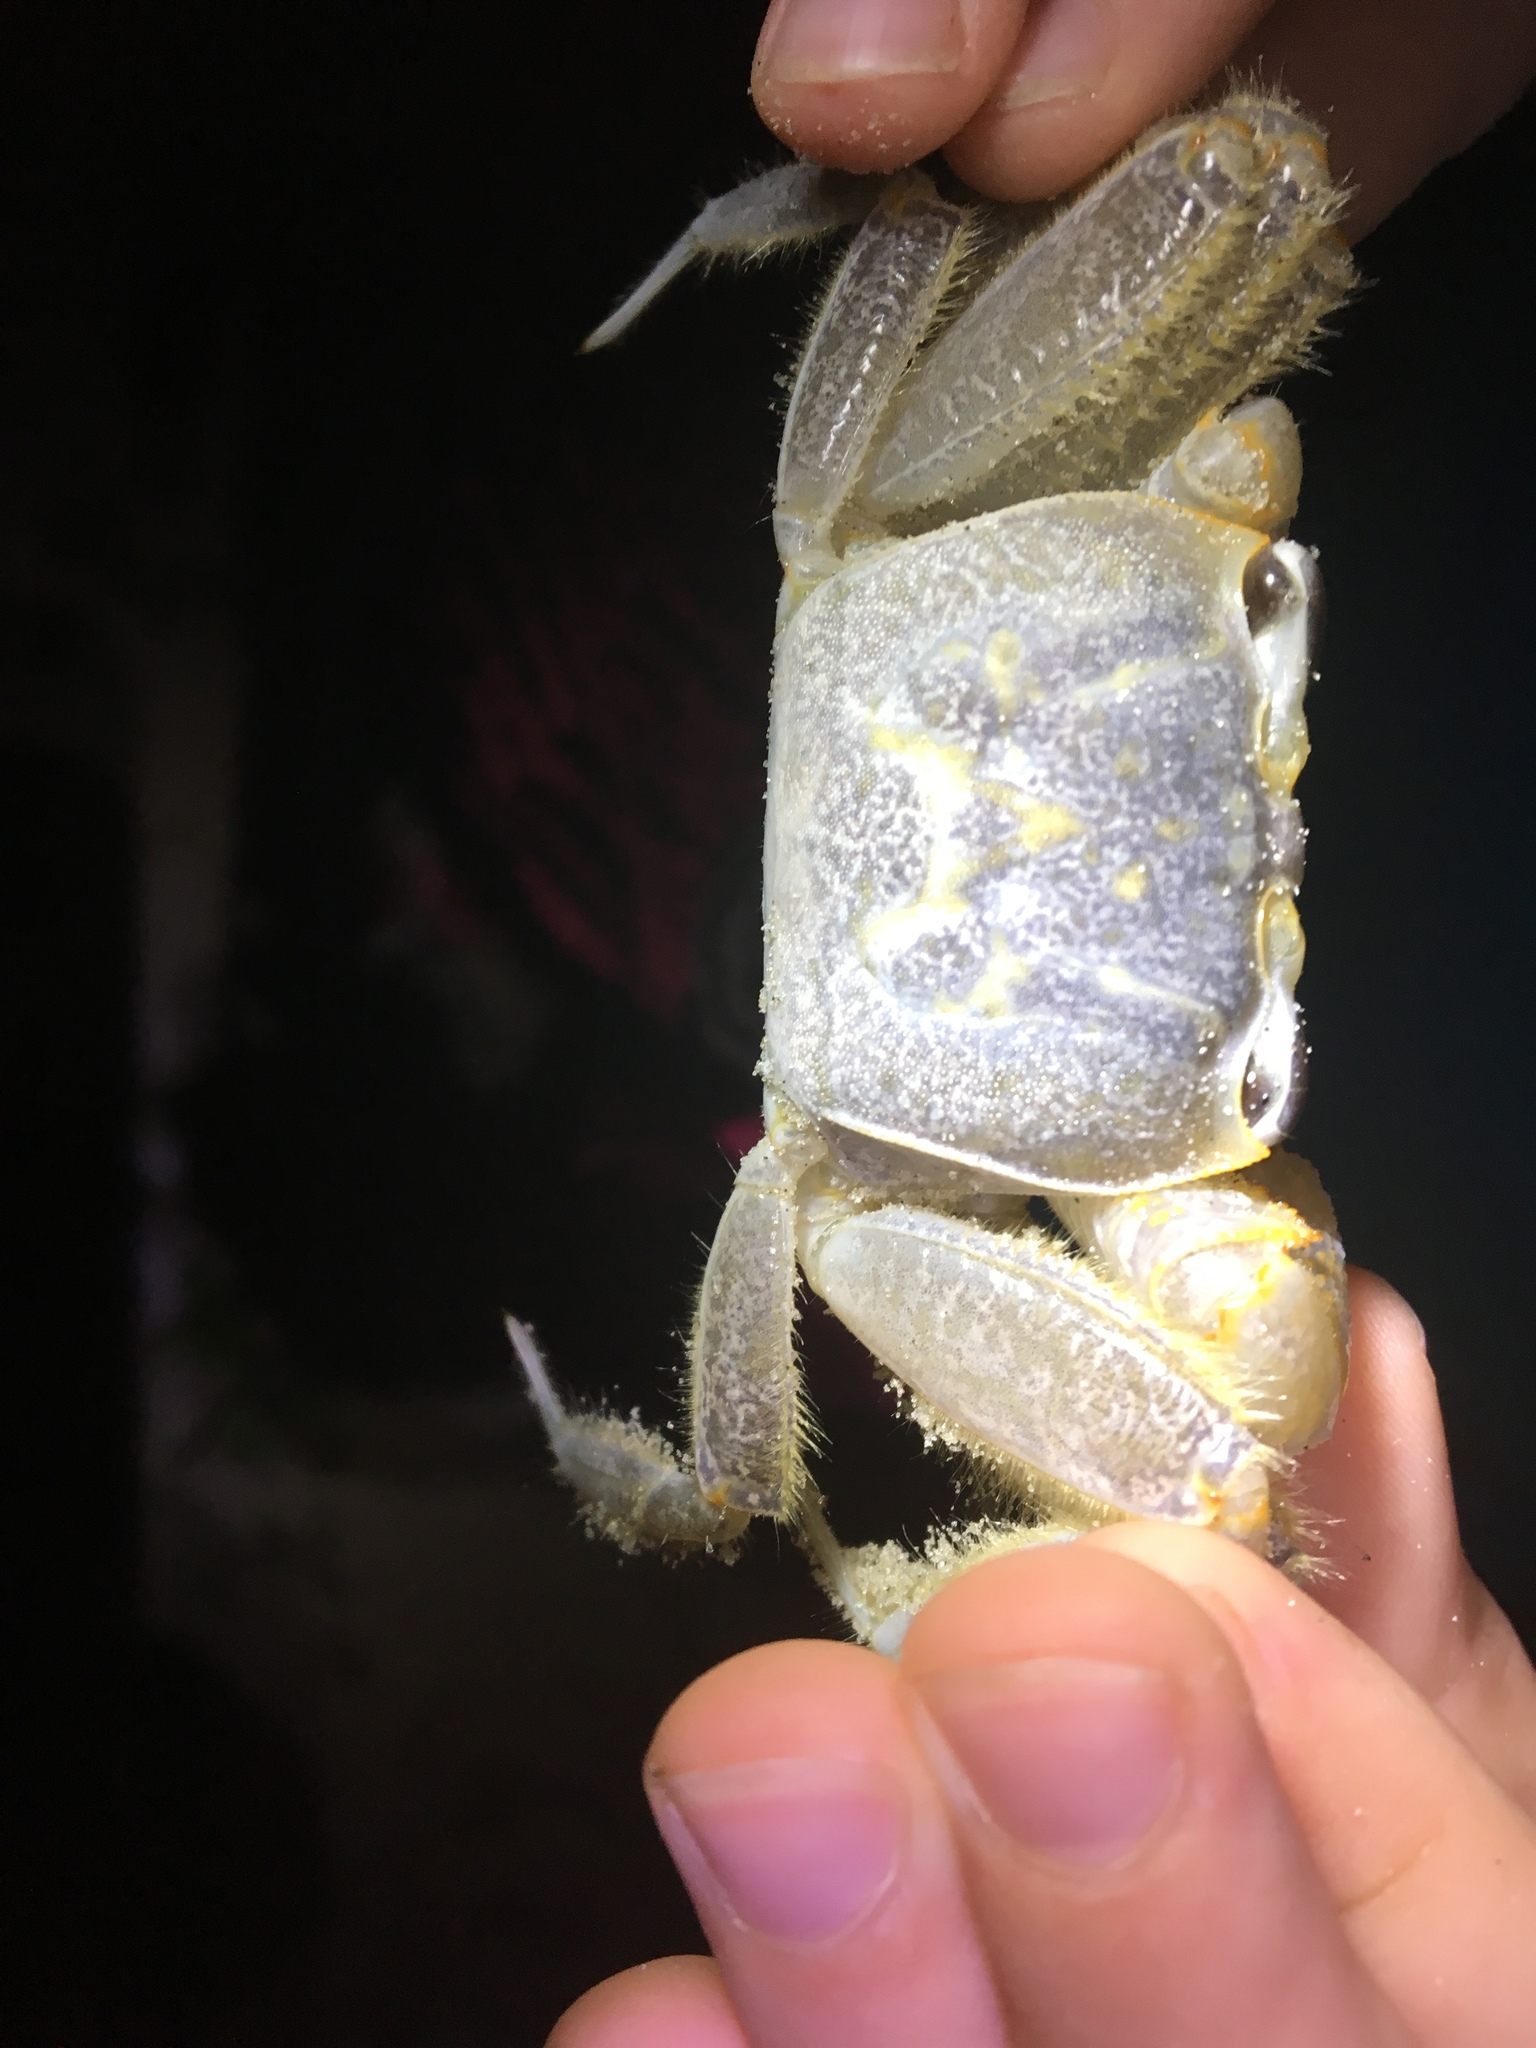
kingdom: Animalia
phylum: Arthropoda
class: Malacostraca
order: Decapoda
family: Ocypodidae
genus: Ocypode
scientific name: Ocypode quadrata
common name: Ghost crab
